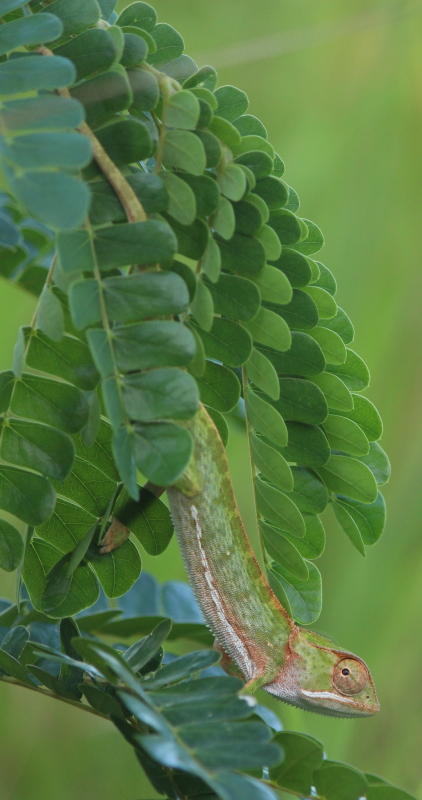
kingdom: Animalia
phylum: Chordata
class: Squamata
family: Chamaeleonidae
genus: Chamaeleo
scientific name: Chamaeleo dilepis
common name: Flapneck chameleon
